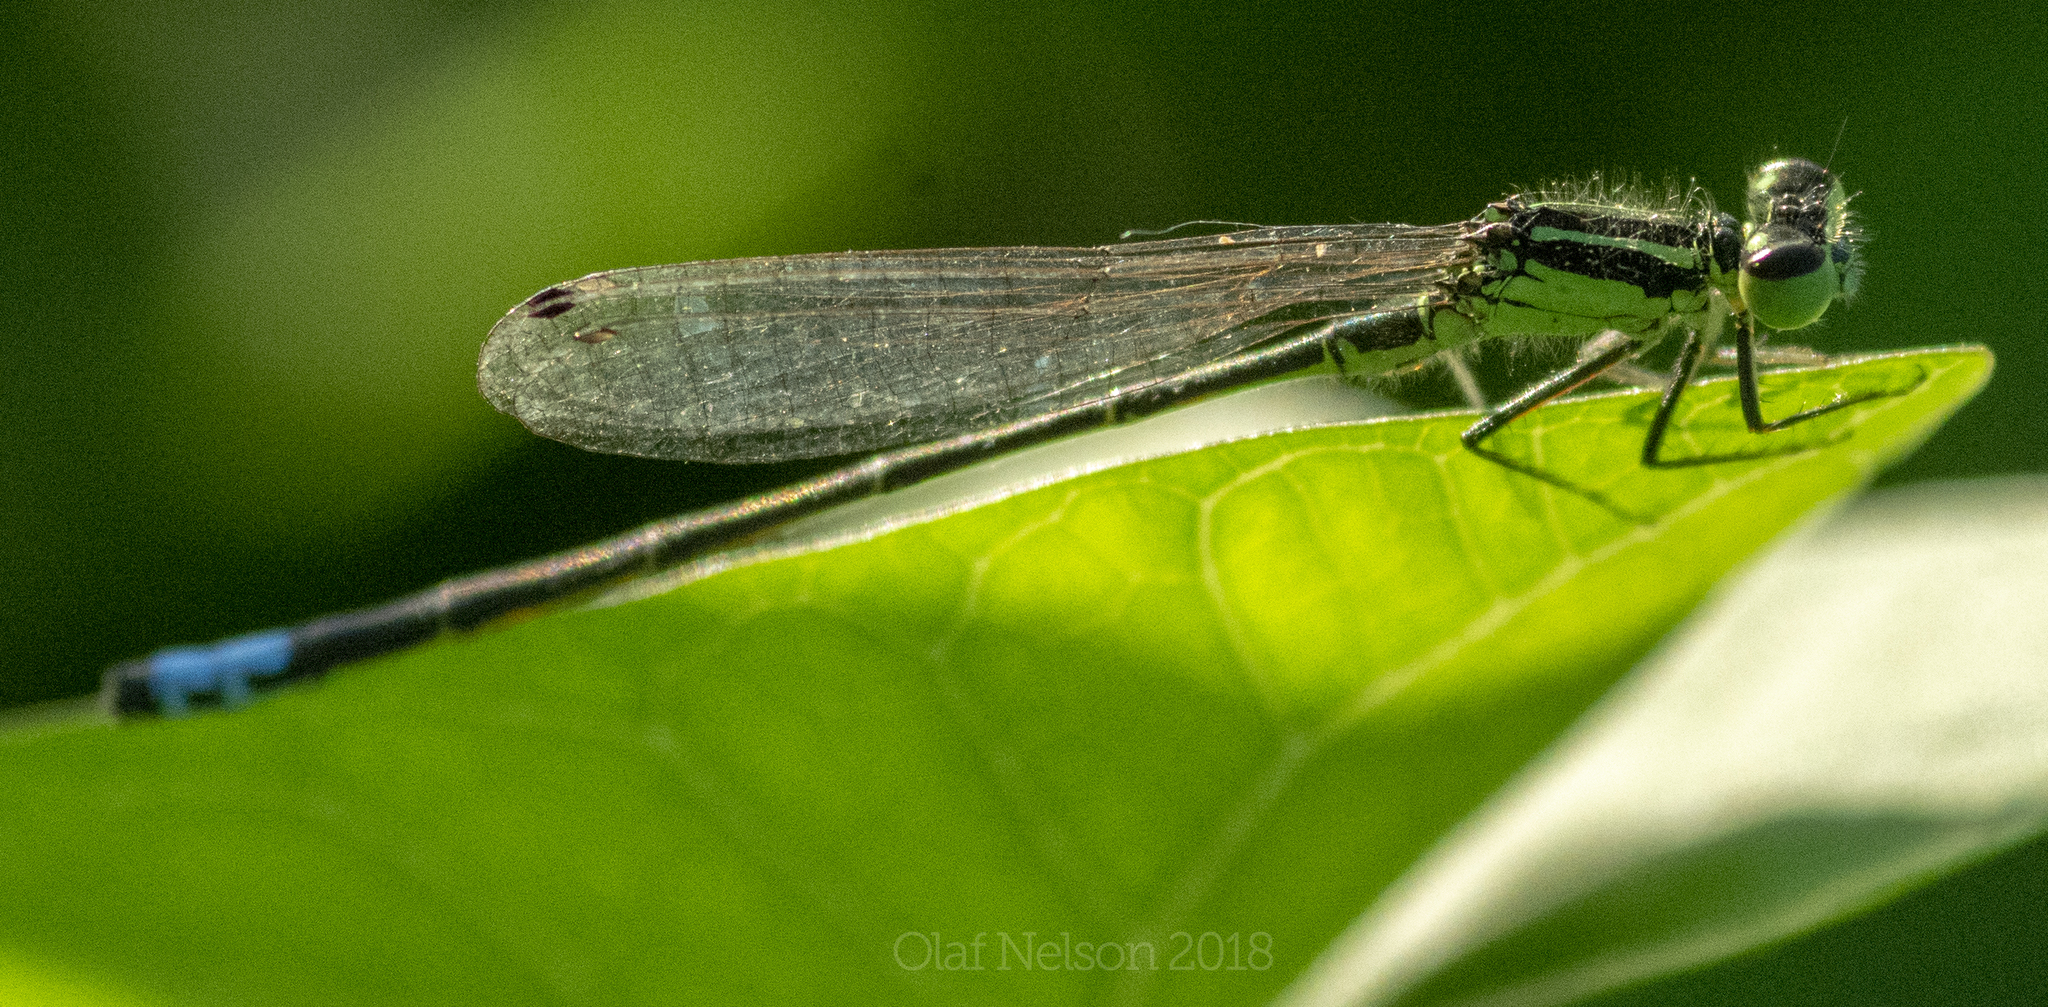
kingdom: Animalia
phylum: Arthropoda
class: Insecta
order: Odonata
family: Coenagrionidae
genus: Ischnura
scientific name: Ischnura verticalis
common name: Eastern forktail
